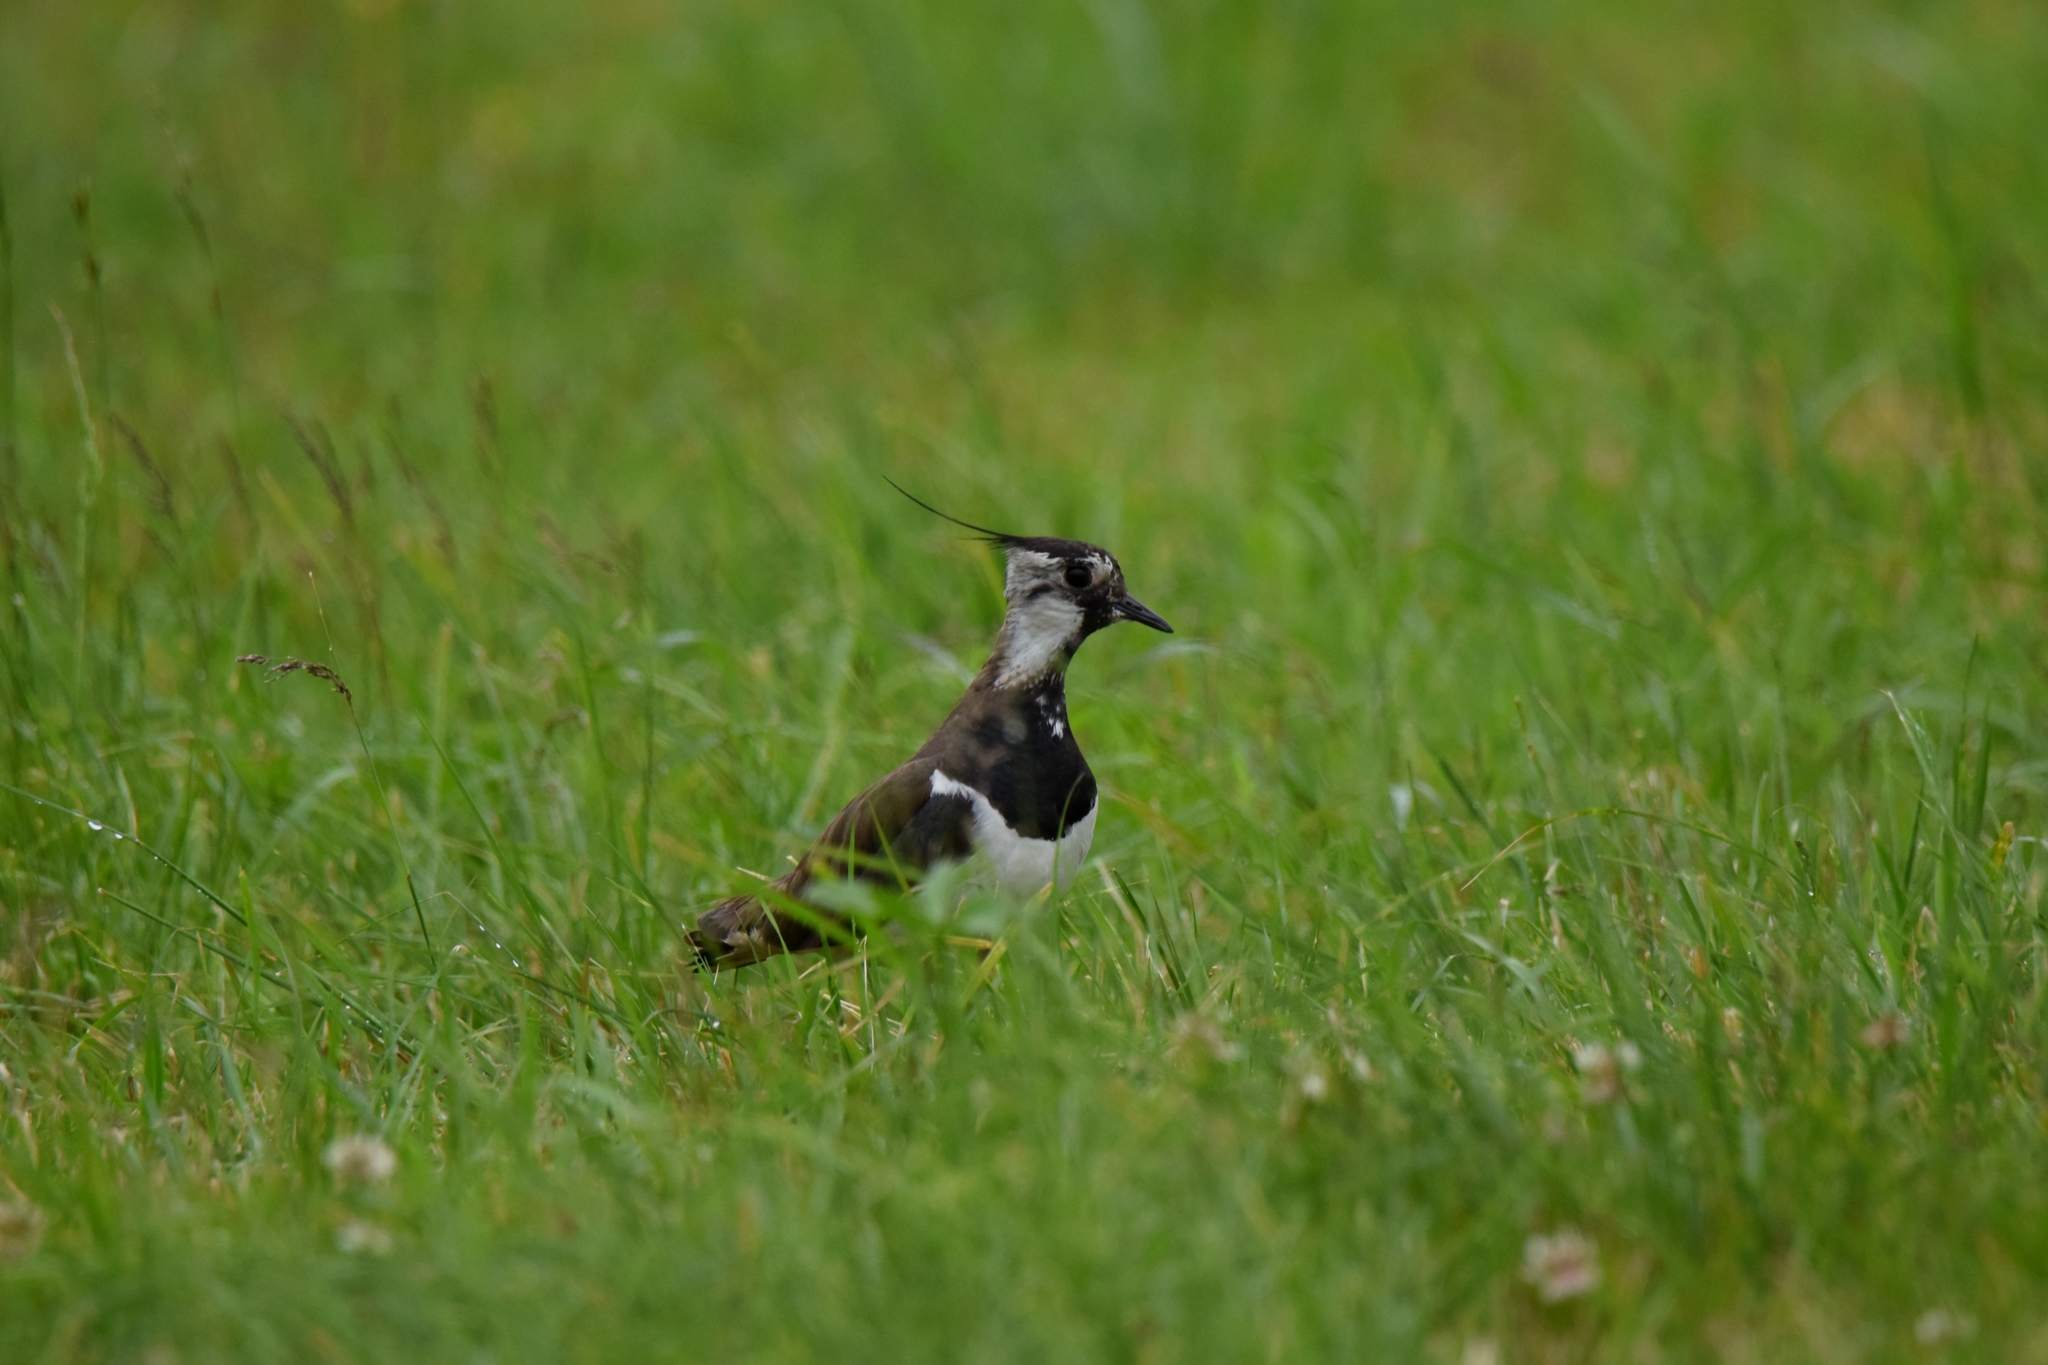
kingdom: Animalia
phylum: Chordata
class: Aves
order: Charadriiformes
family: Charadriidae
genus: Vanellus
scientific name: Vanellus vanellus
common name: Northern lapwing
